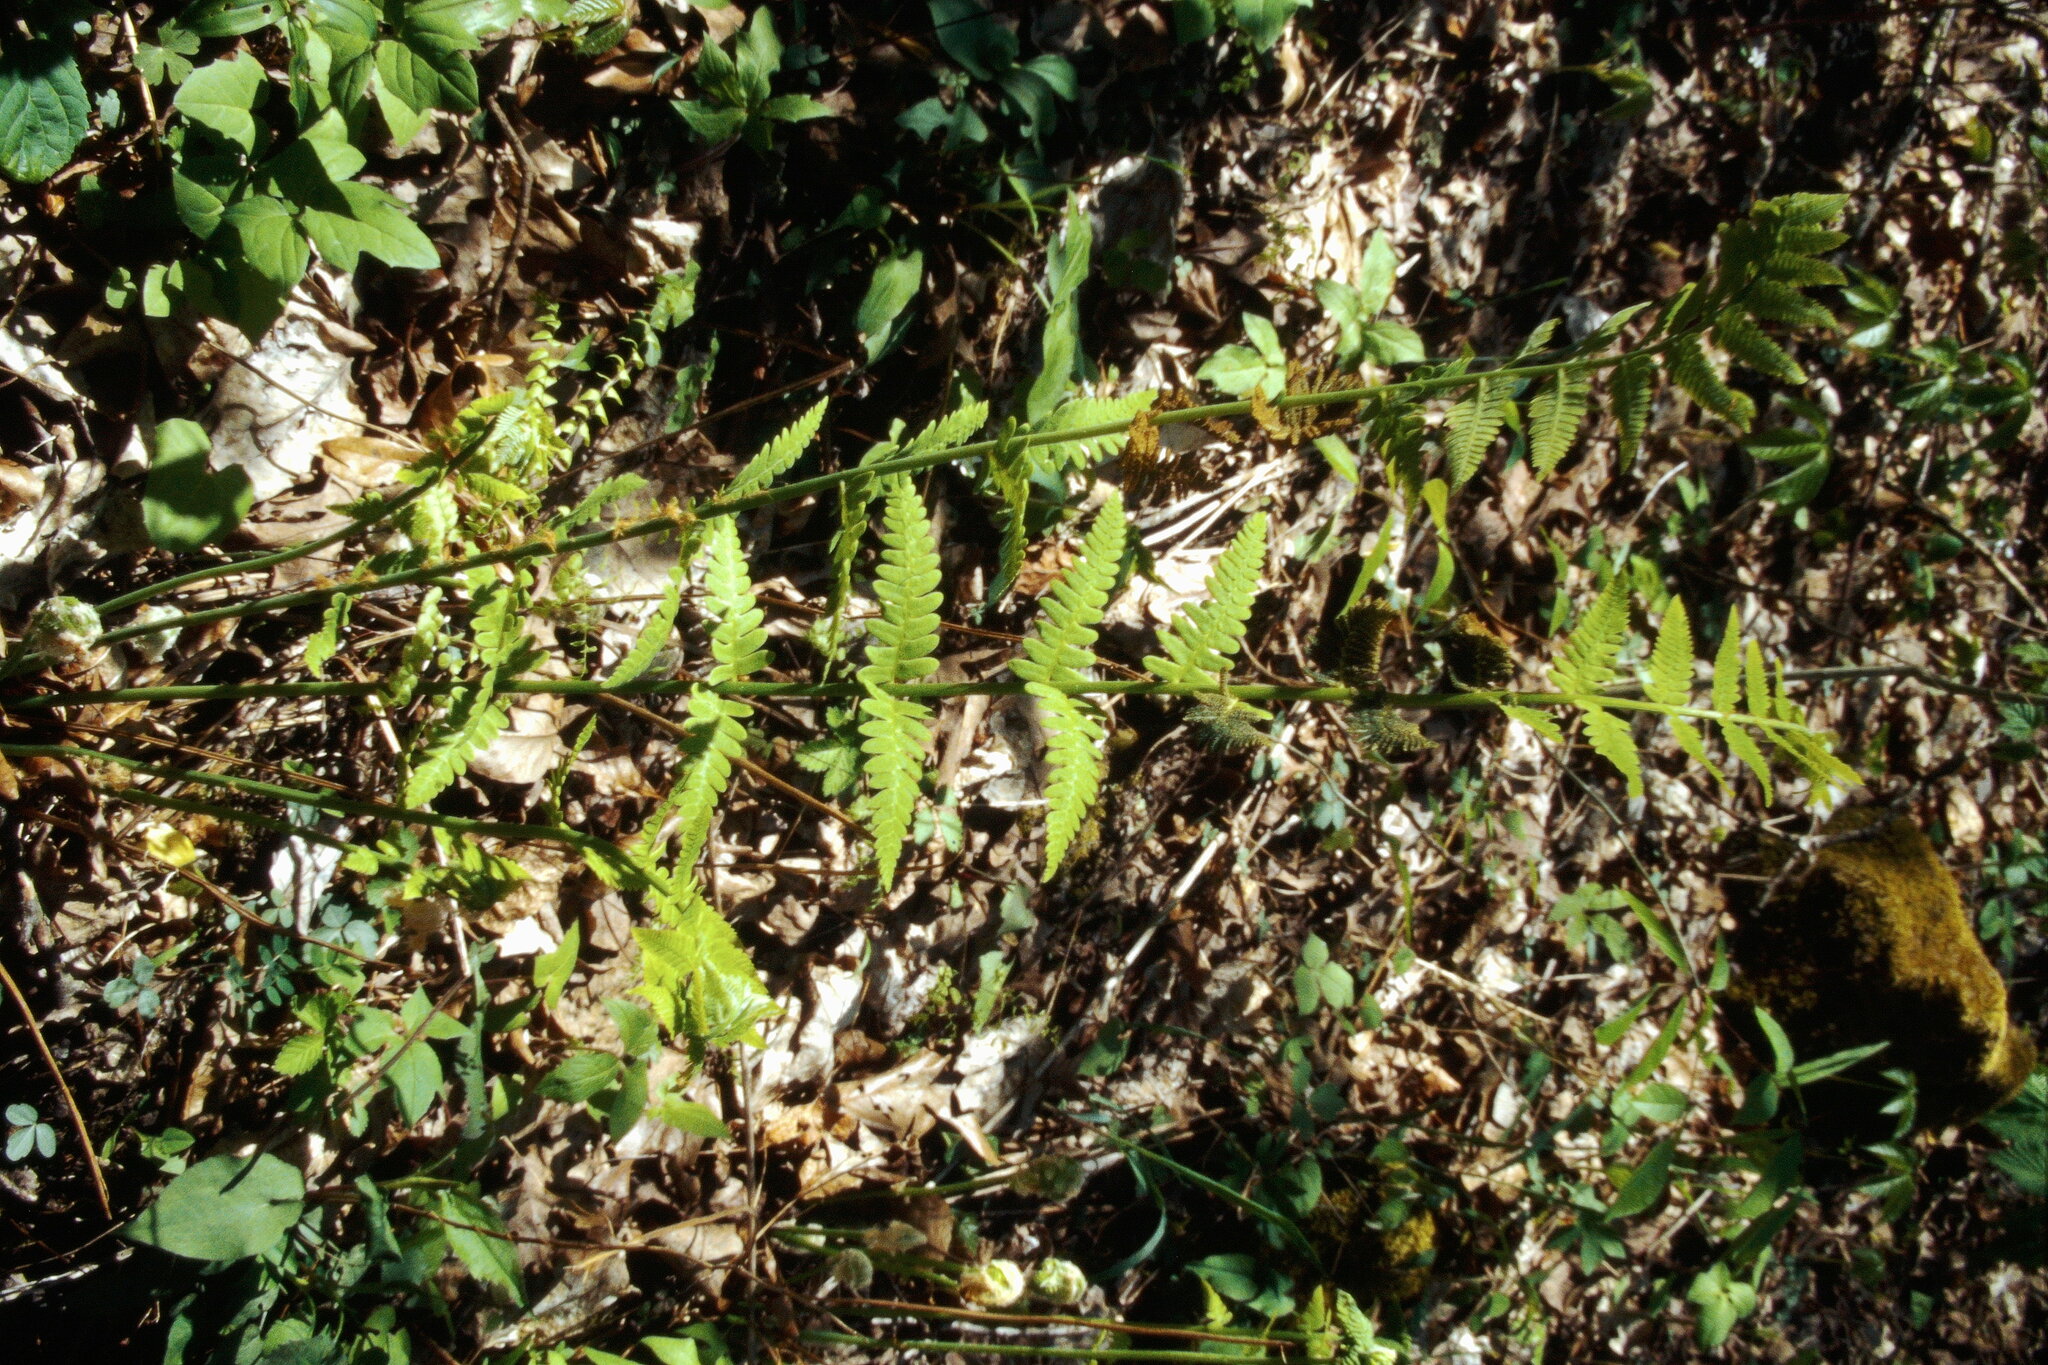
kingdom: Plantae
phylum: Tracheophyta
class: Polypodiopsida
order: Osmundales
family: Osmundaceae
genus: Claytosmunda
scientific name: Claytosmunda claytoniana
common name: Clayton's fern
